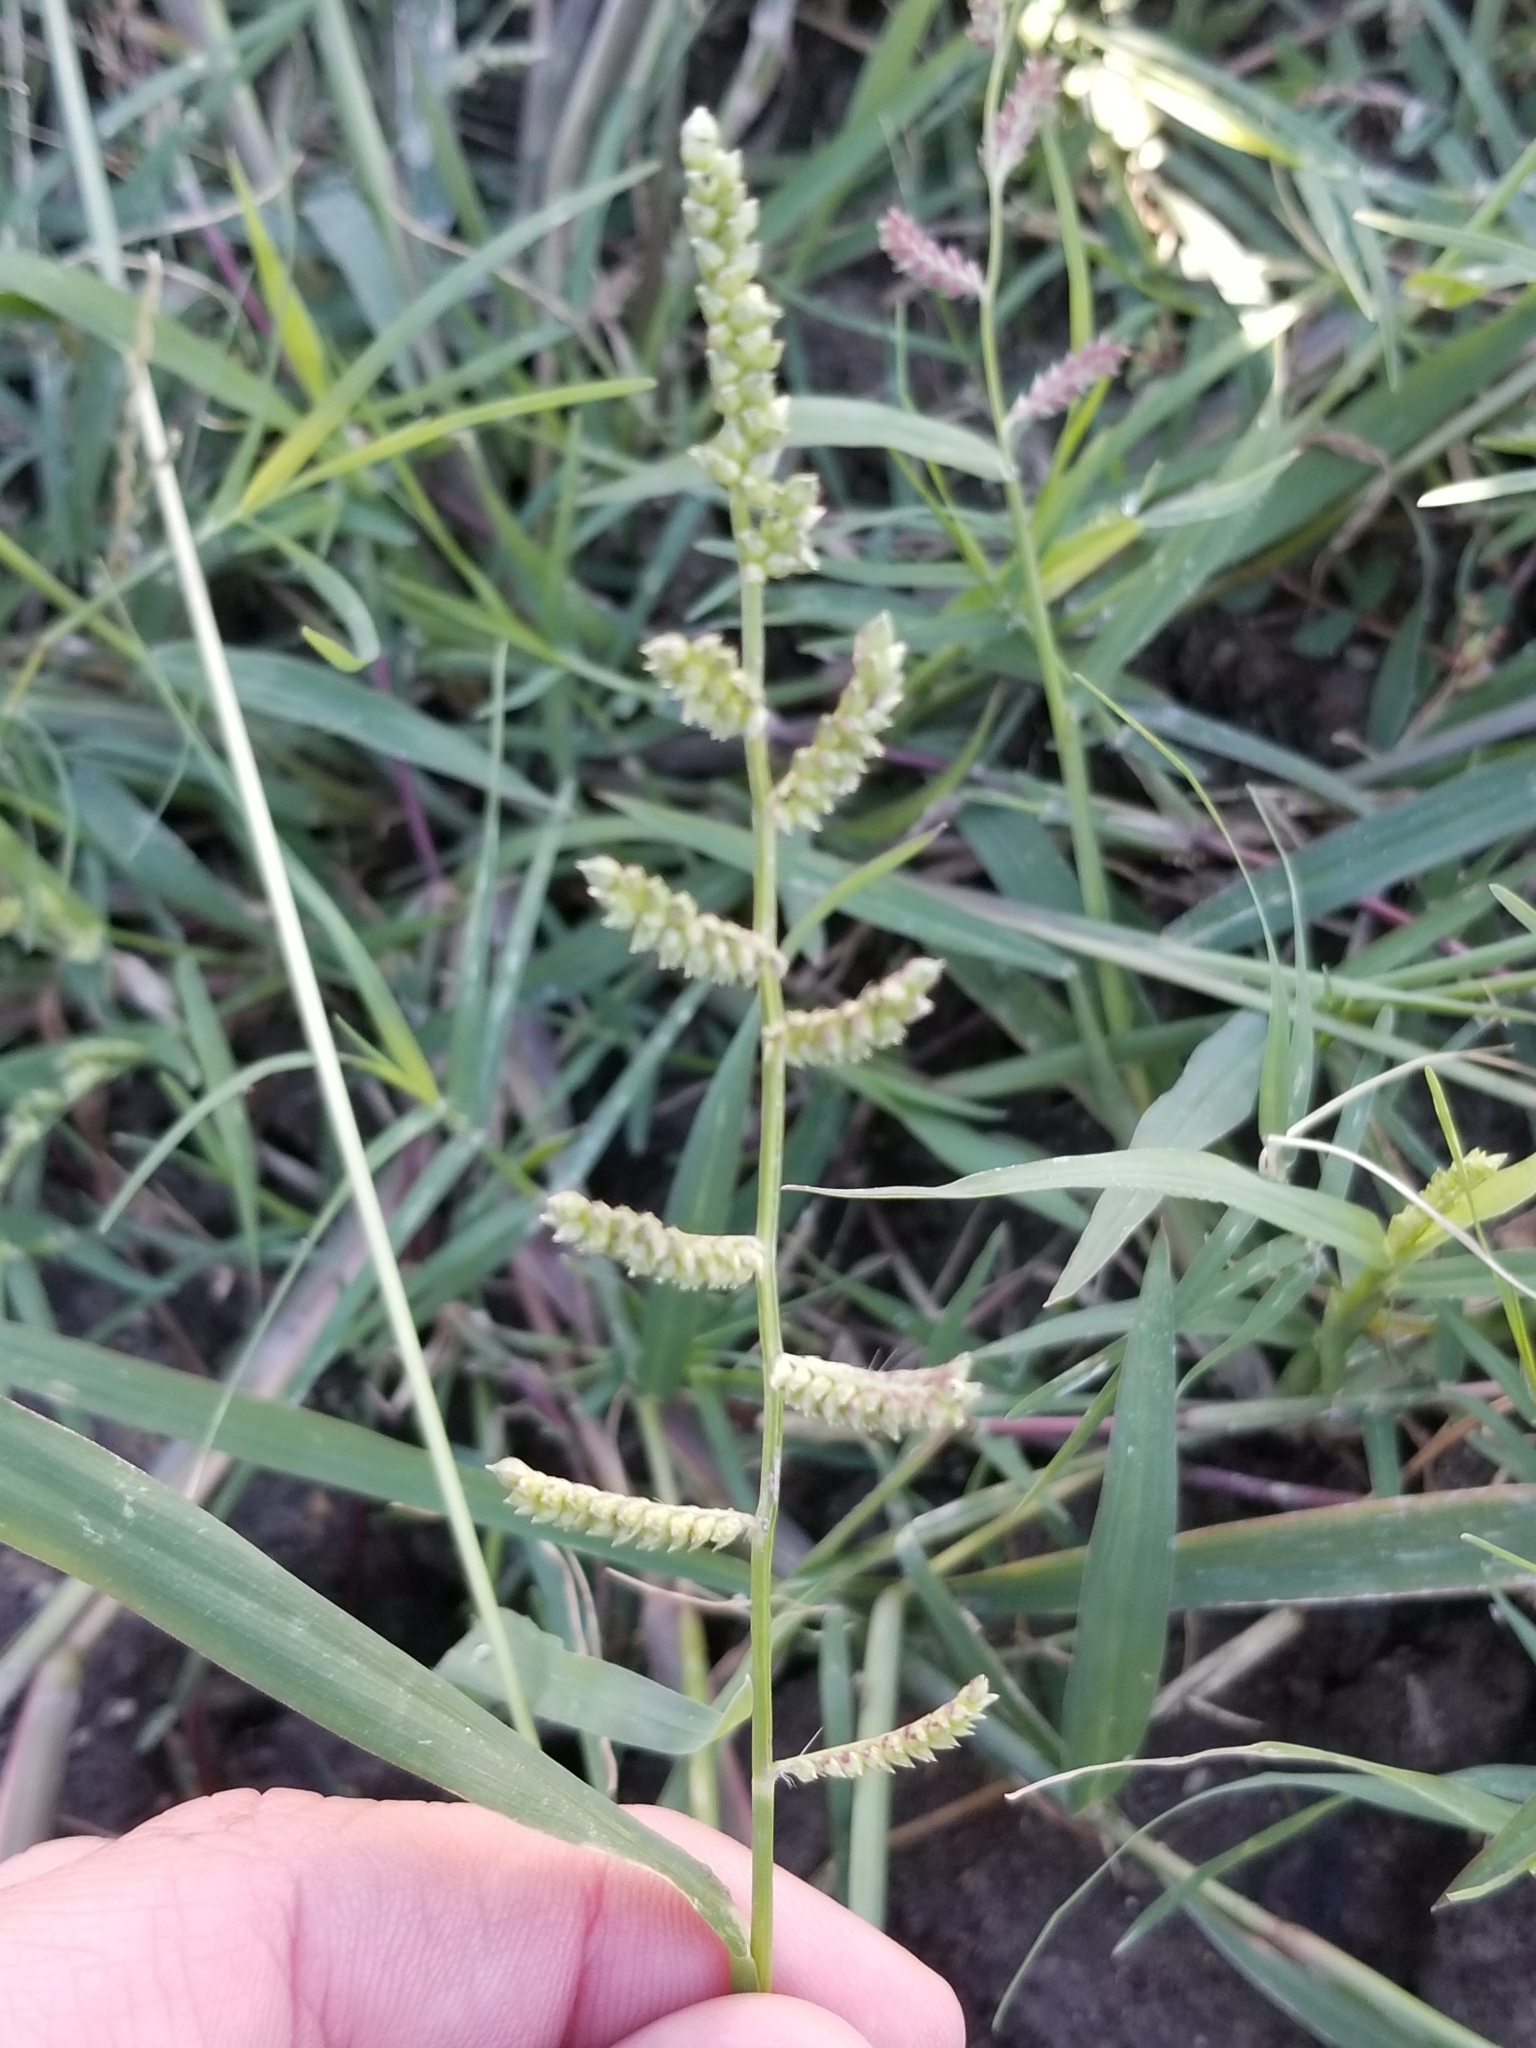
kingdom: Plantae
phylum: Tracheophyta
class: Liliopsida
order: Poales
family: Poaceae
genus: Echinochloa
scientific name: Echinochloa colonum
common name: Jungle rice
